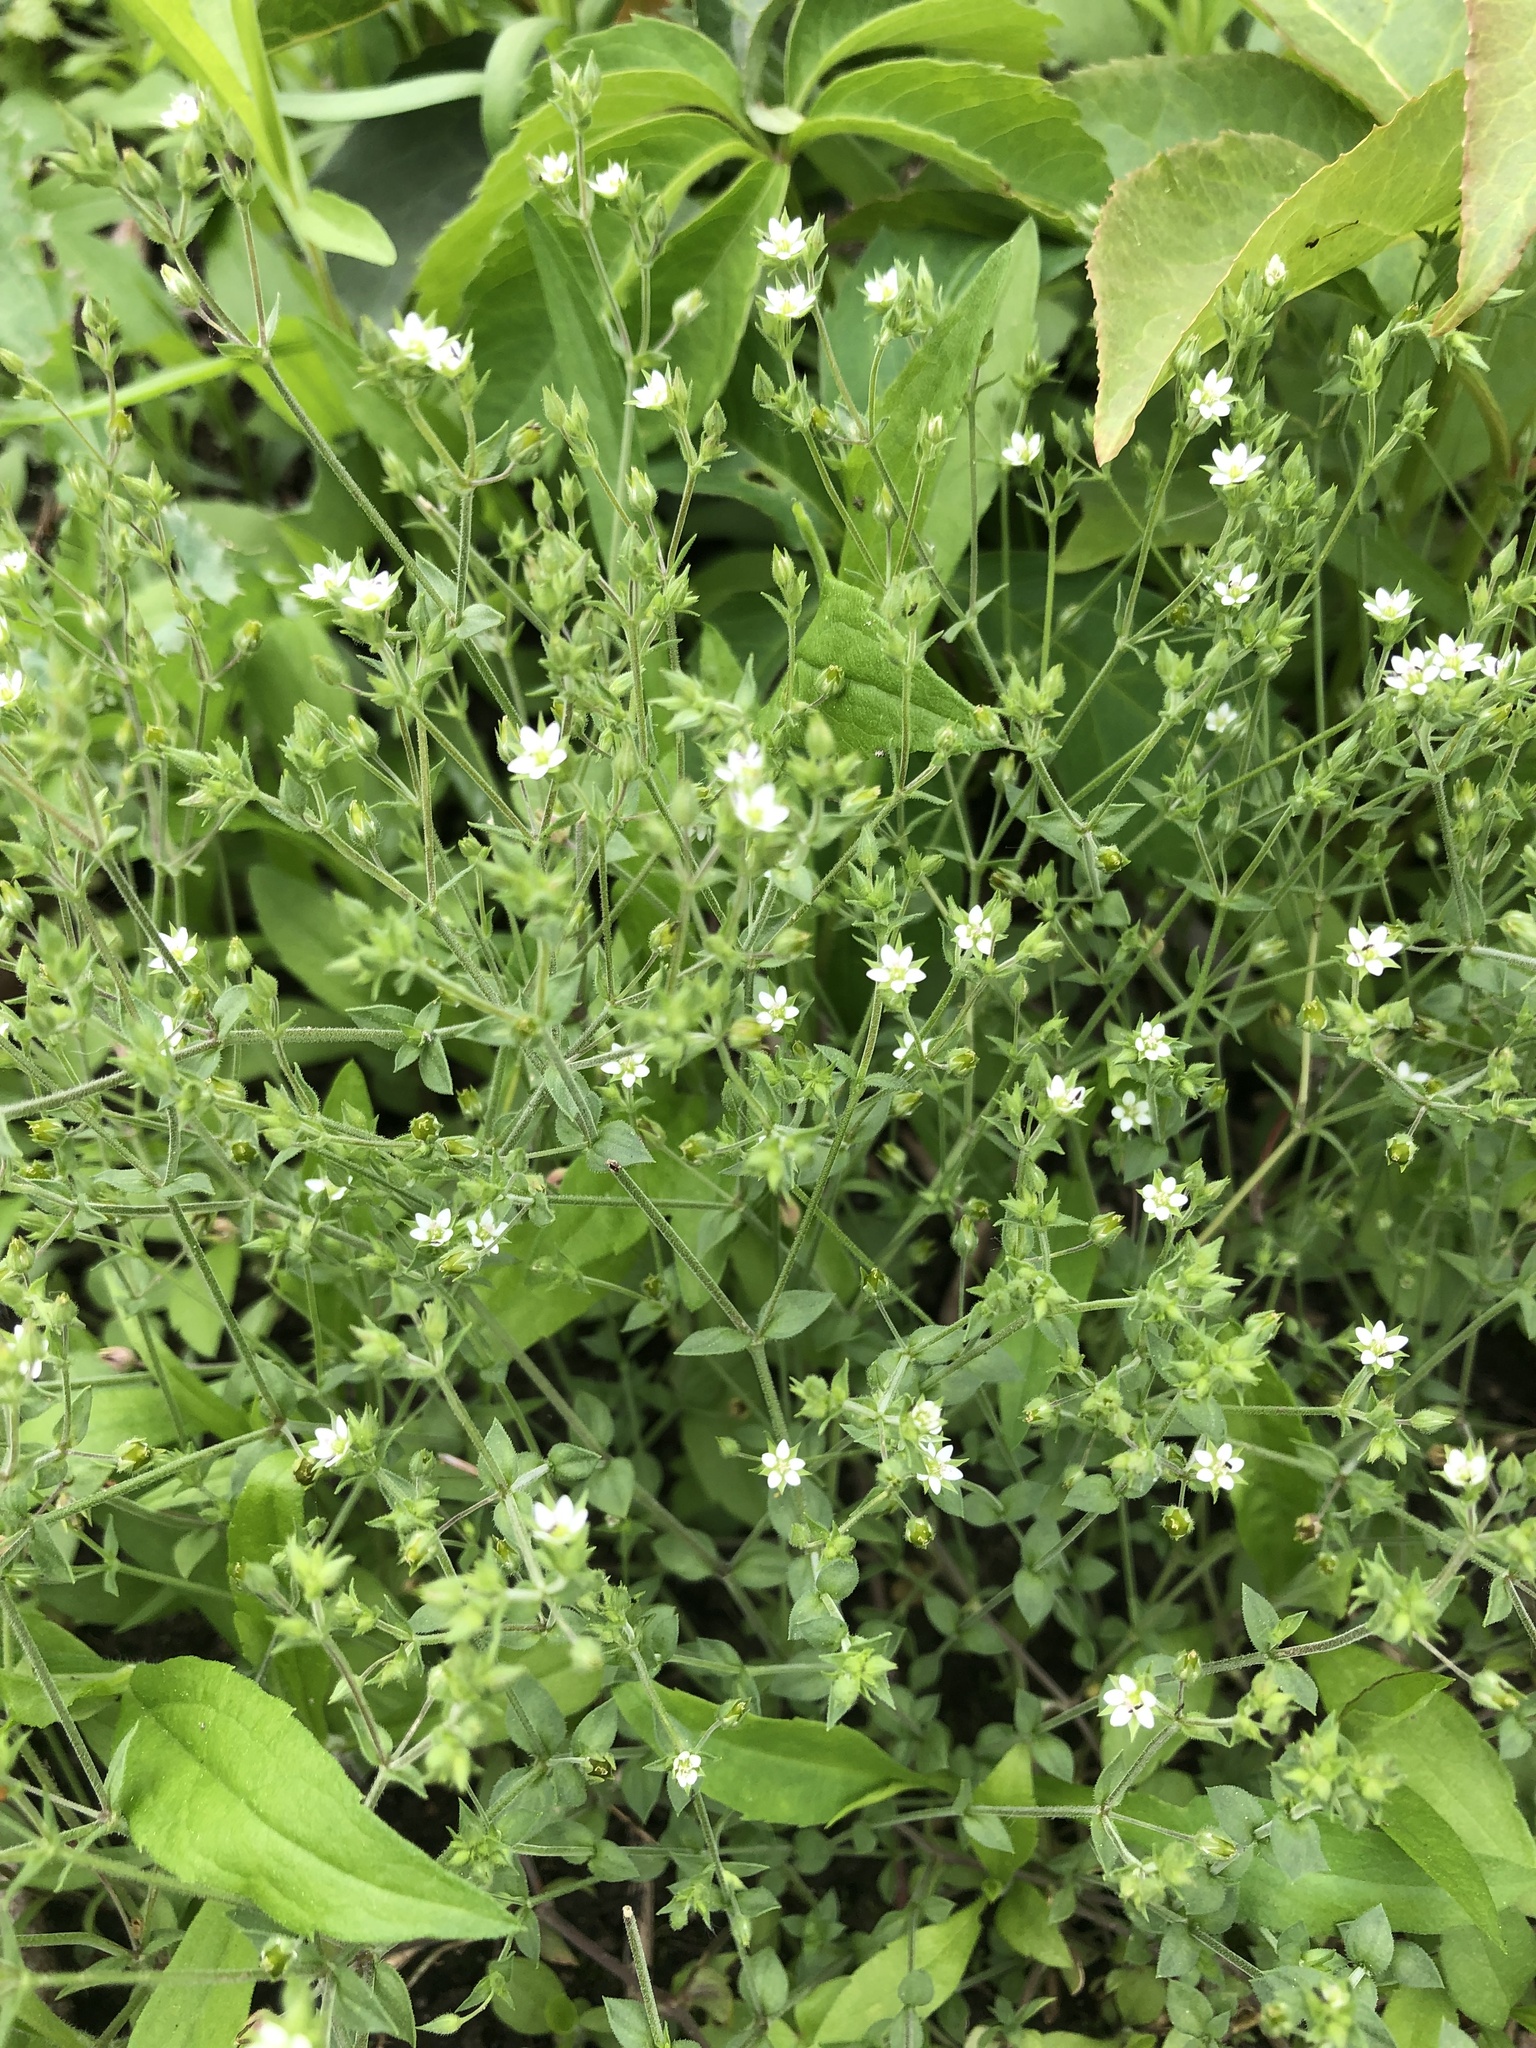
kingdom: Plantae
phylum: Tracheophyta
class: Magnoliopsida
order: Caryophyllales
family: Caryophyllaceae
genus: Arenaria
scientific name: Arenaria serpyllifolia
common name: Thyme-leaved sandwort
